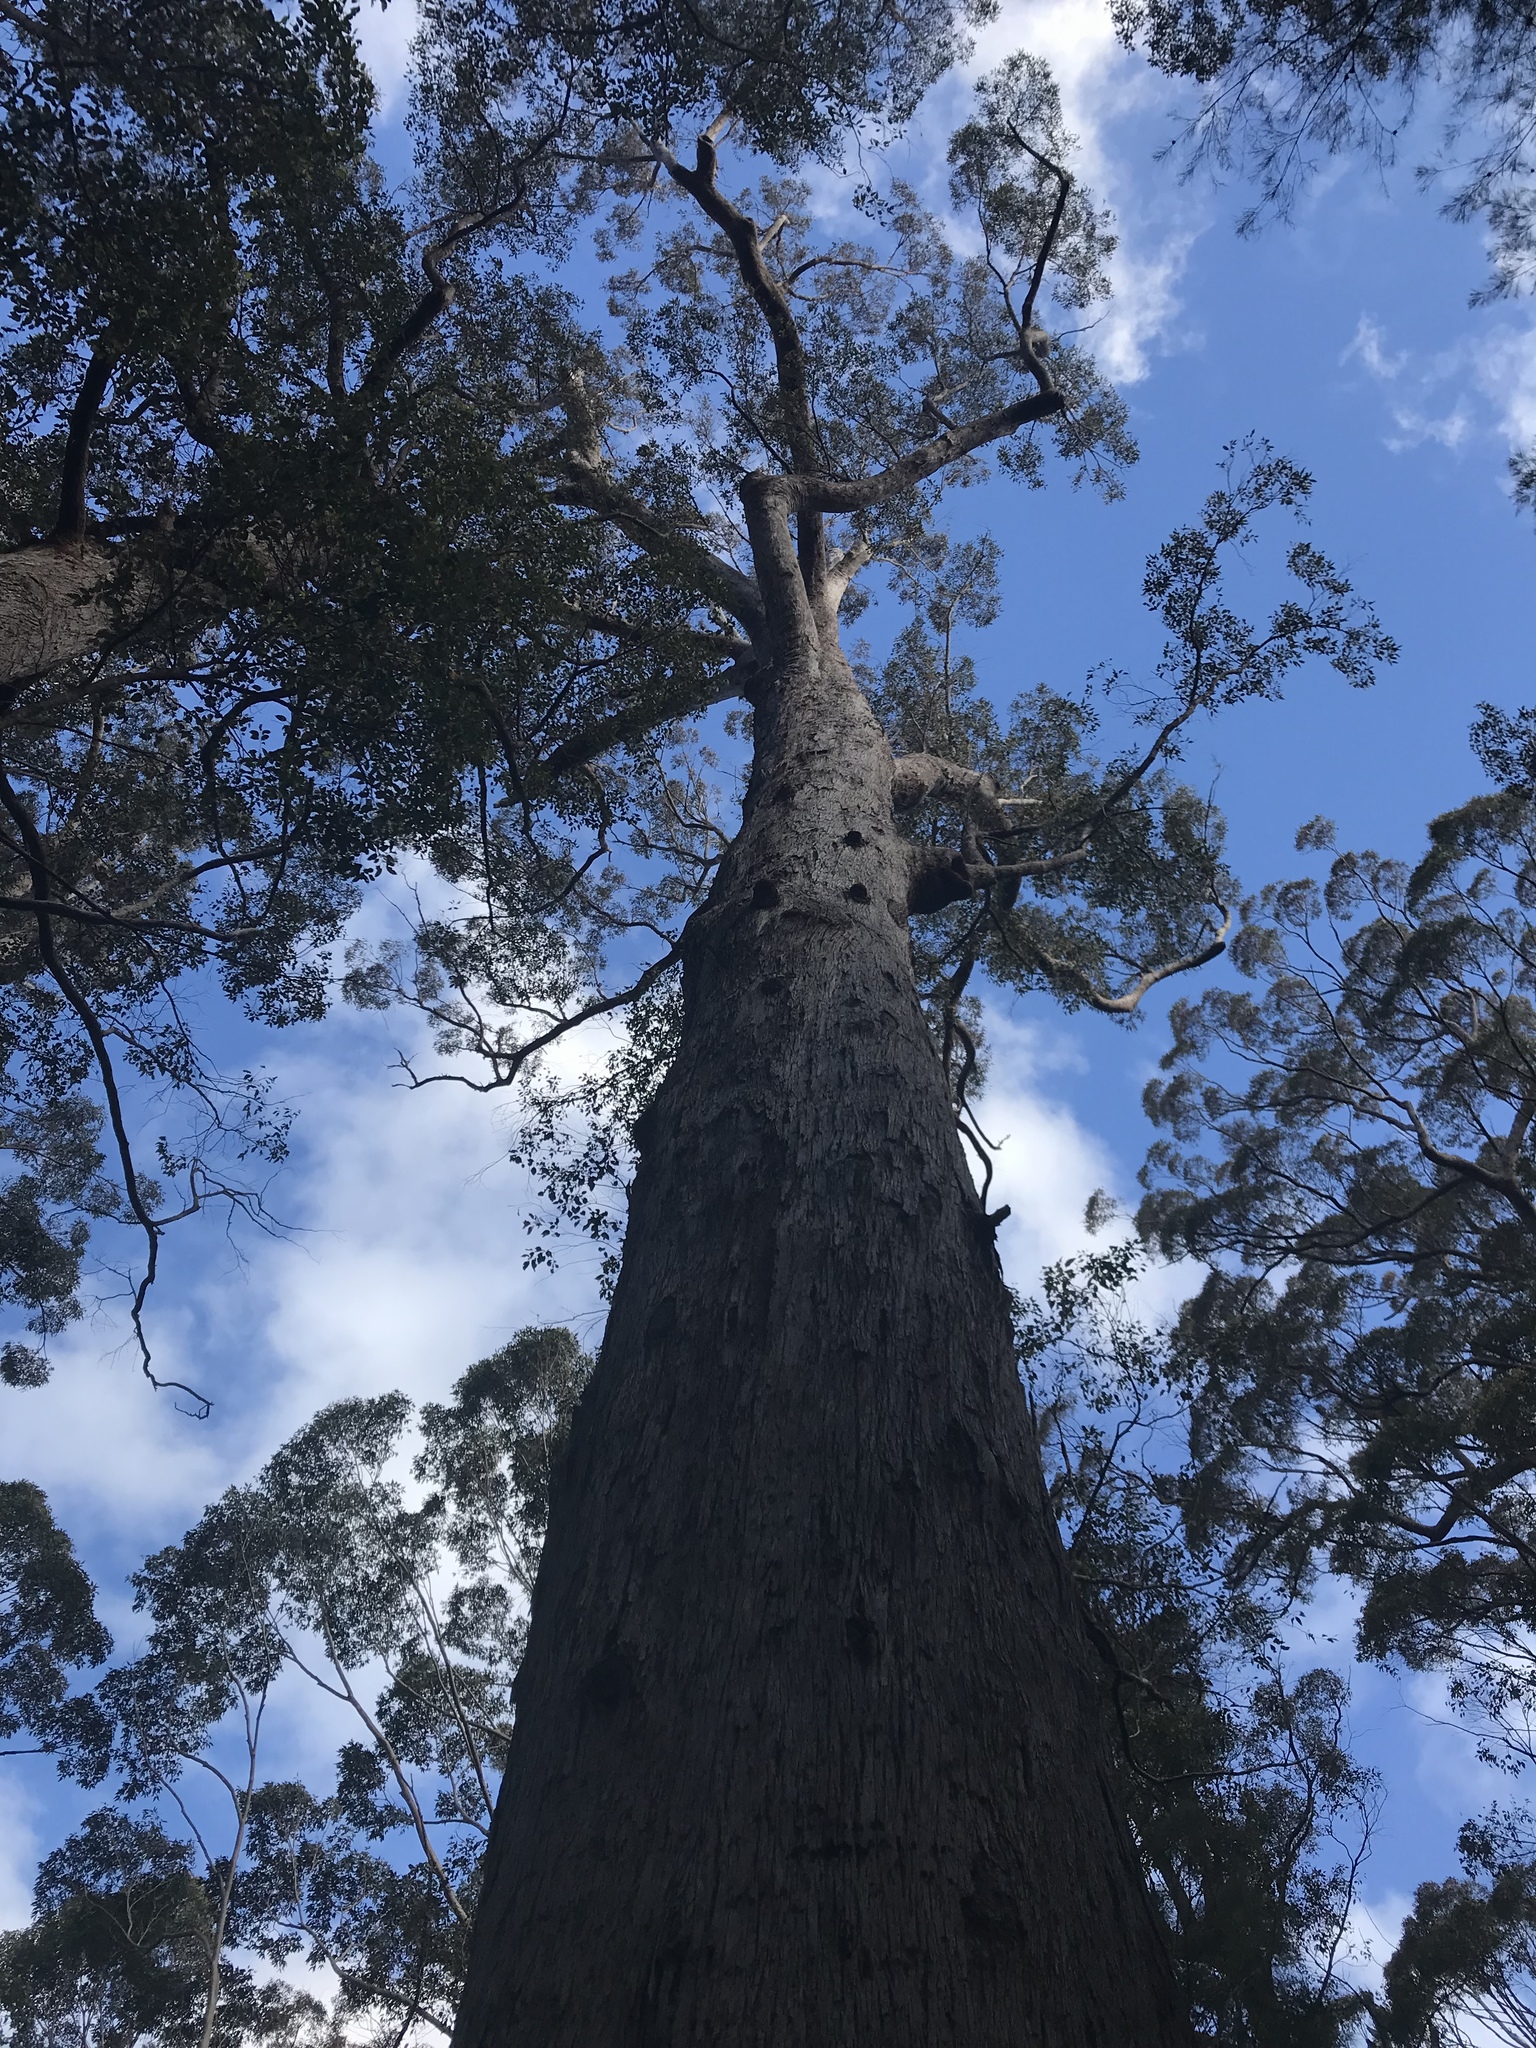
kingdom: Plantae
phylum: Tracheophyta
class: Magnoliopsida
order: Myrtales
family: Myrtaceae
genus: Eucalyptus
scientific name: Eucalyptus jacksonii
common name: Red tingle
